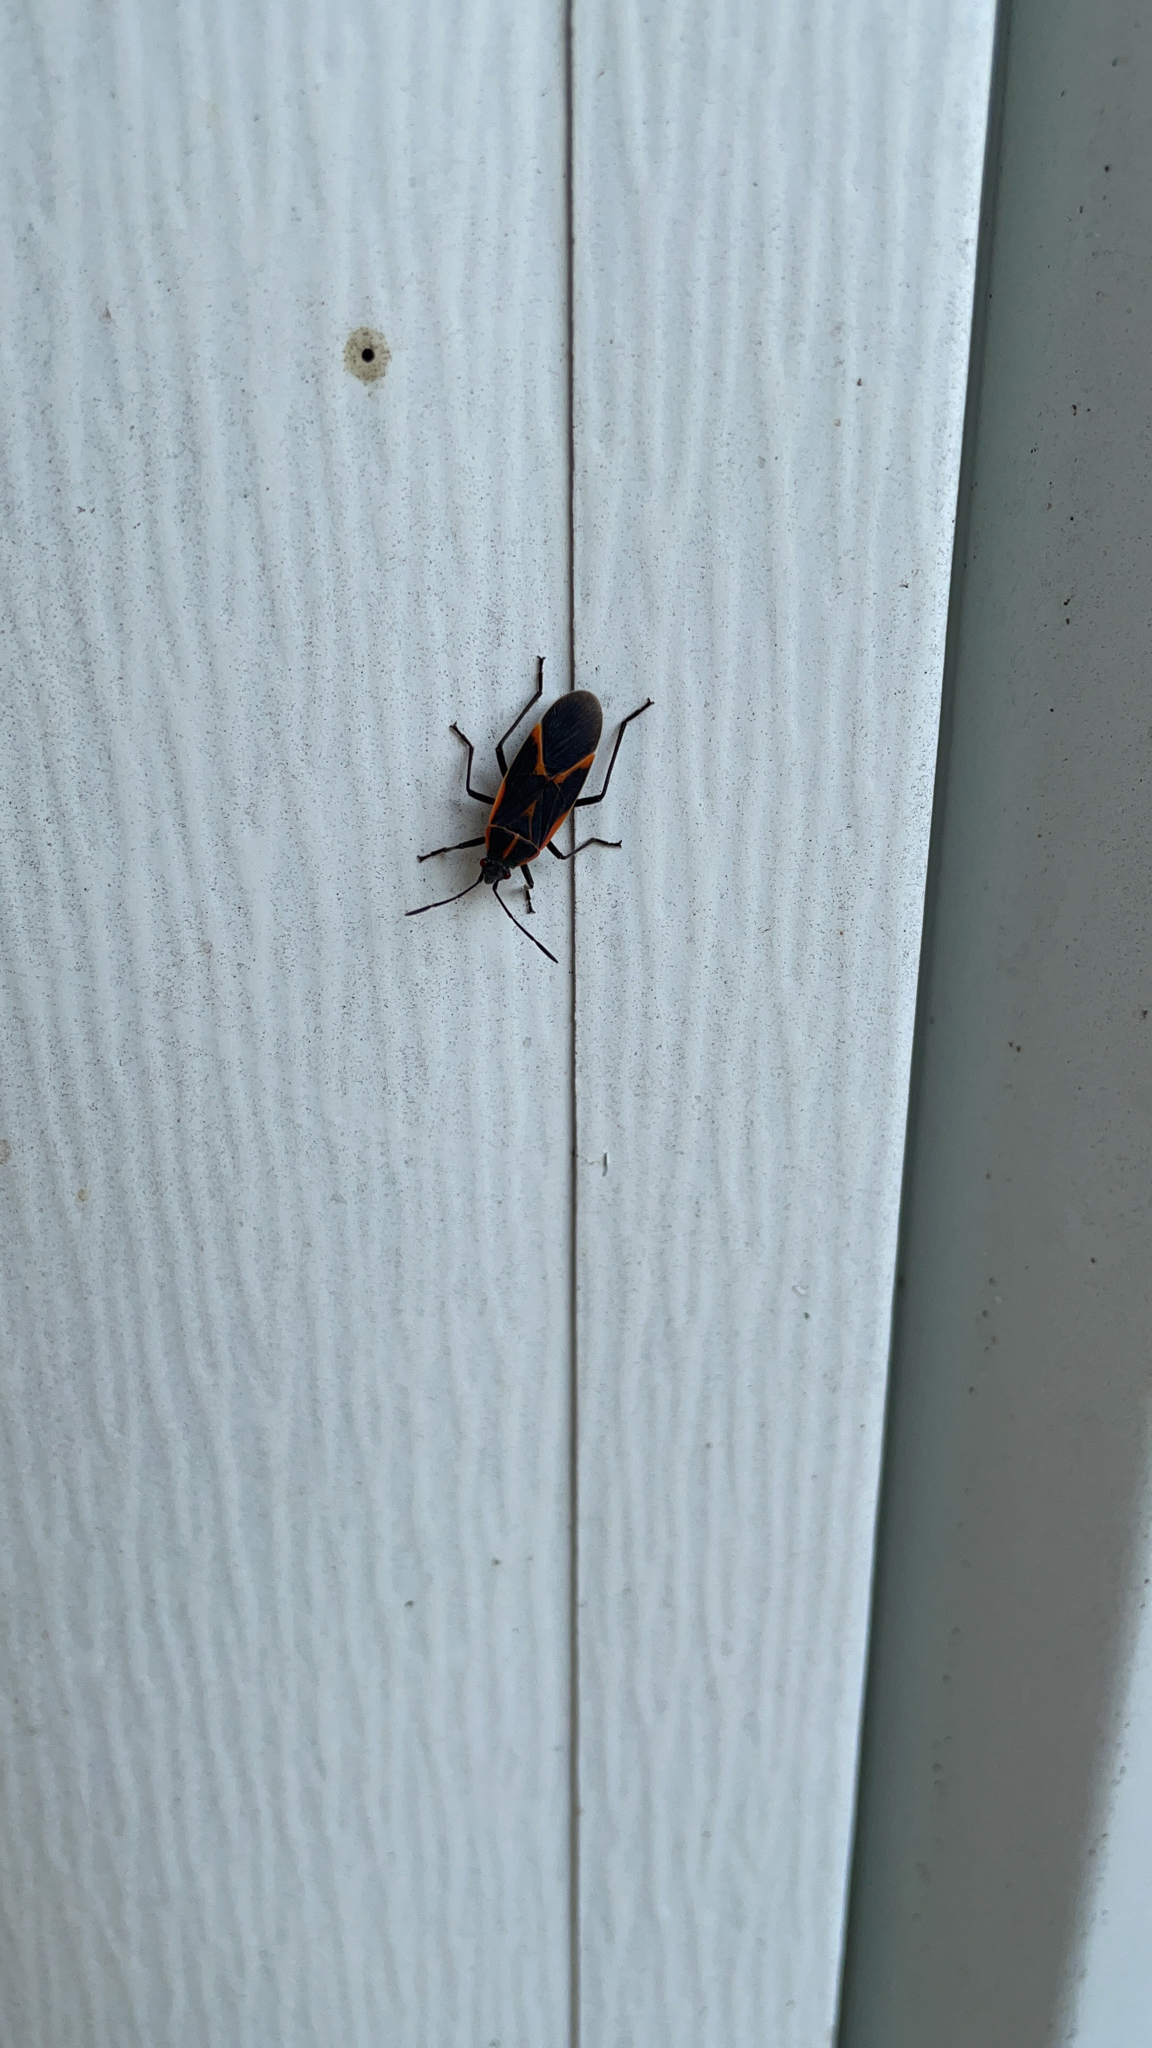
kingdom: Animalia
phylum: Arthropoda
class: Insecta
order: Hemiptera
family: Rhopalidae
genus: Boisea
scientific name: Boisea trivittata
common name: Boxelder bug
